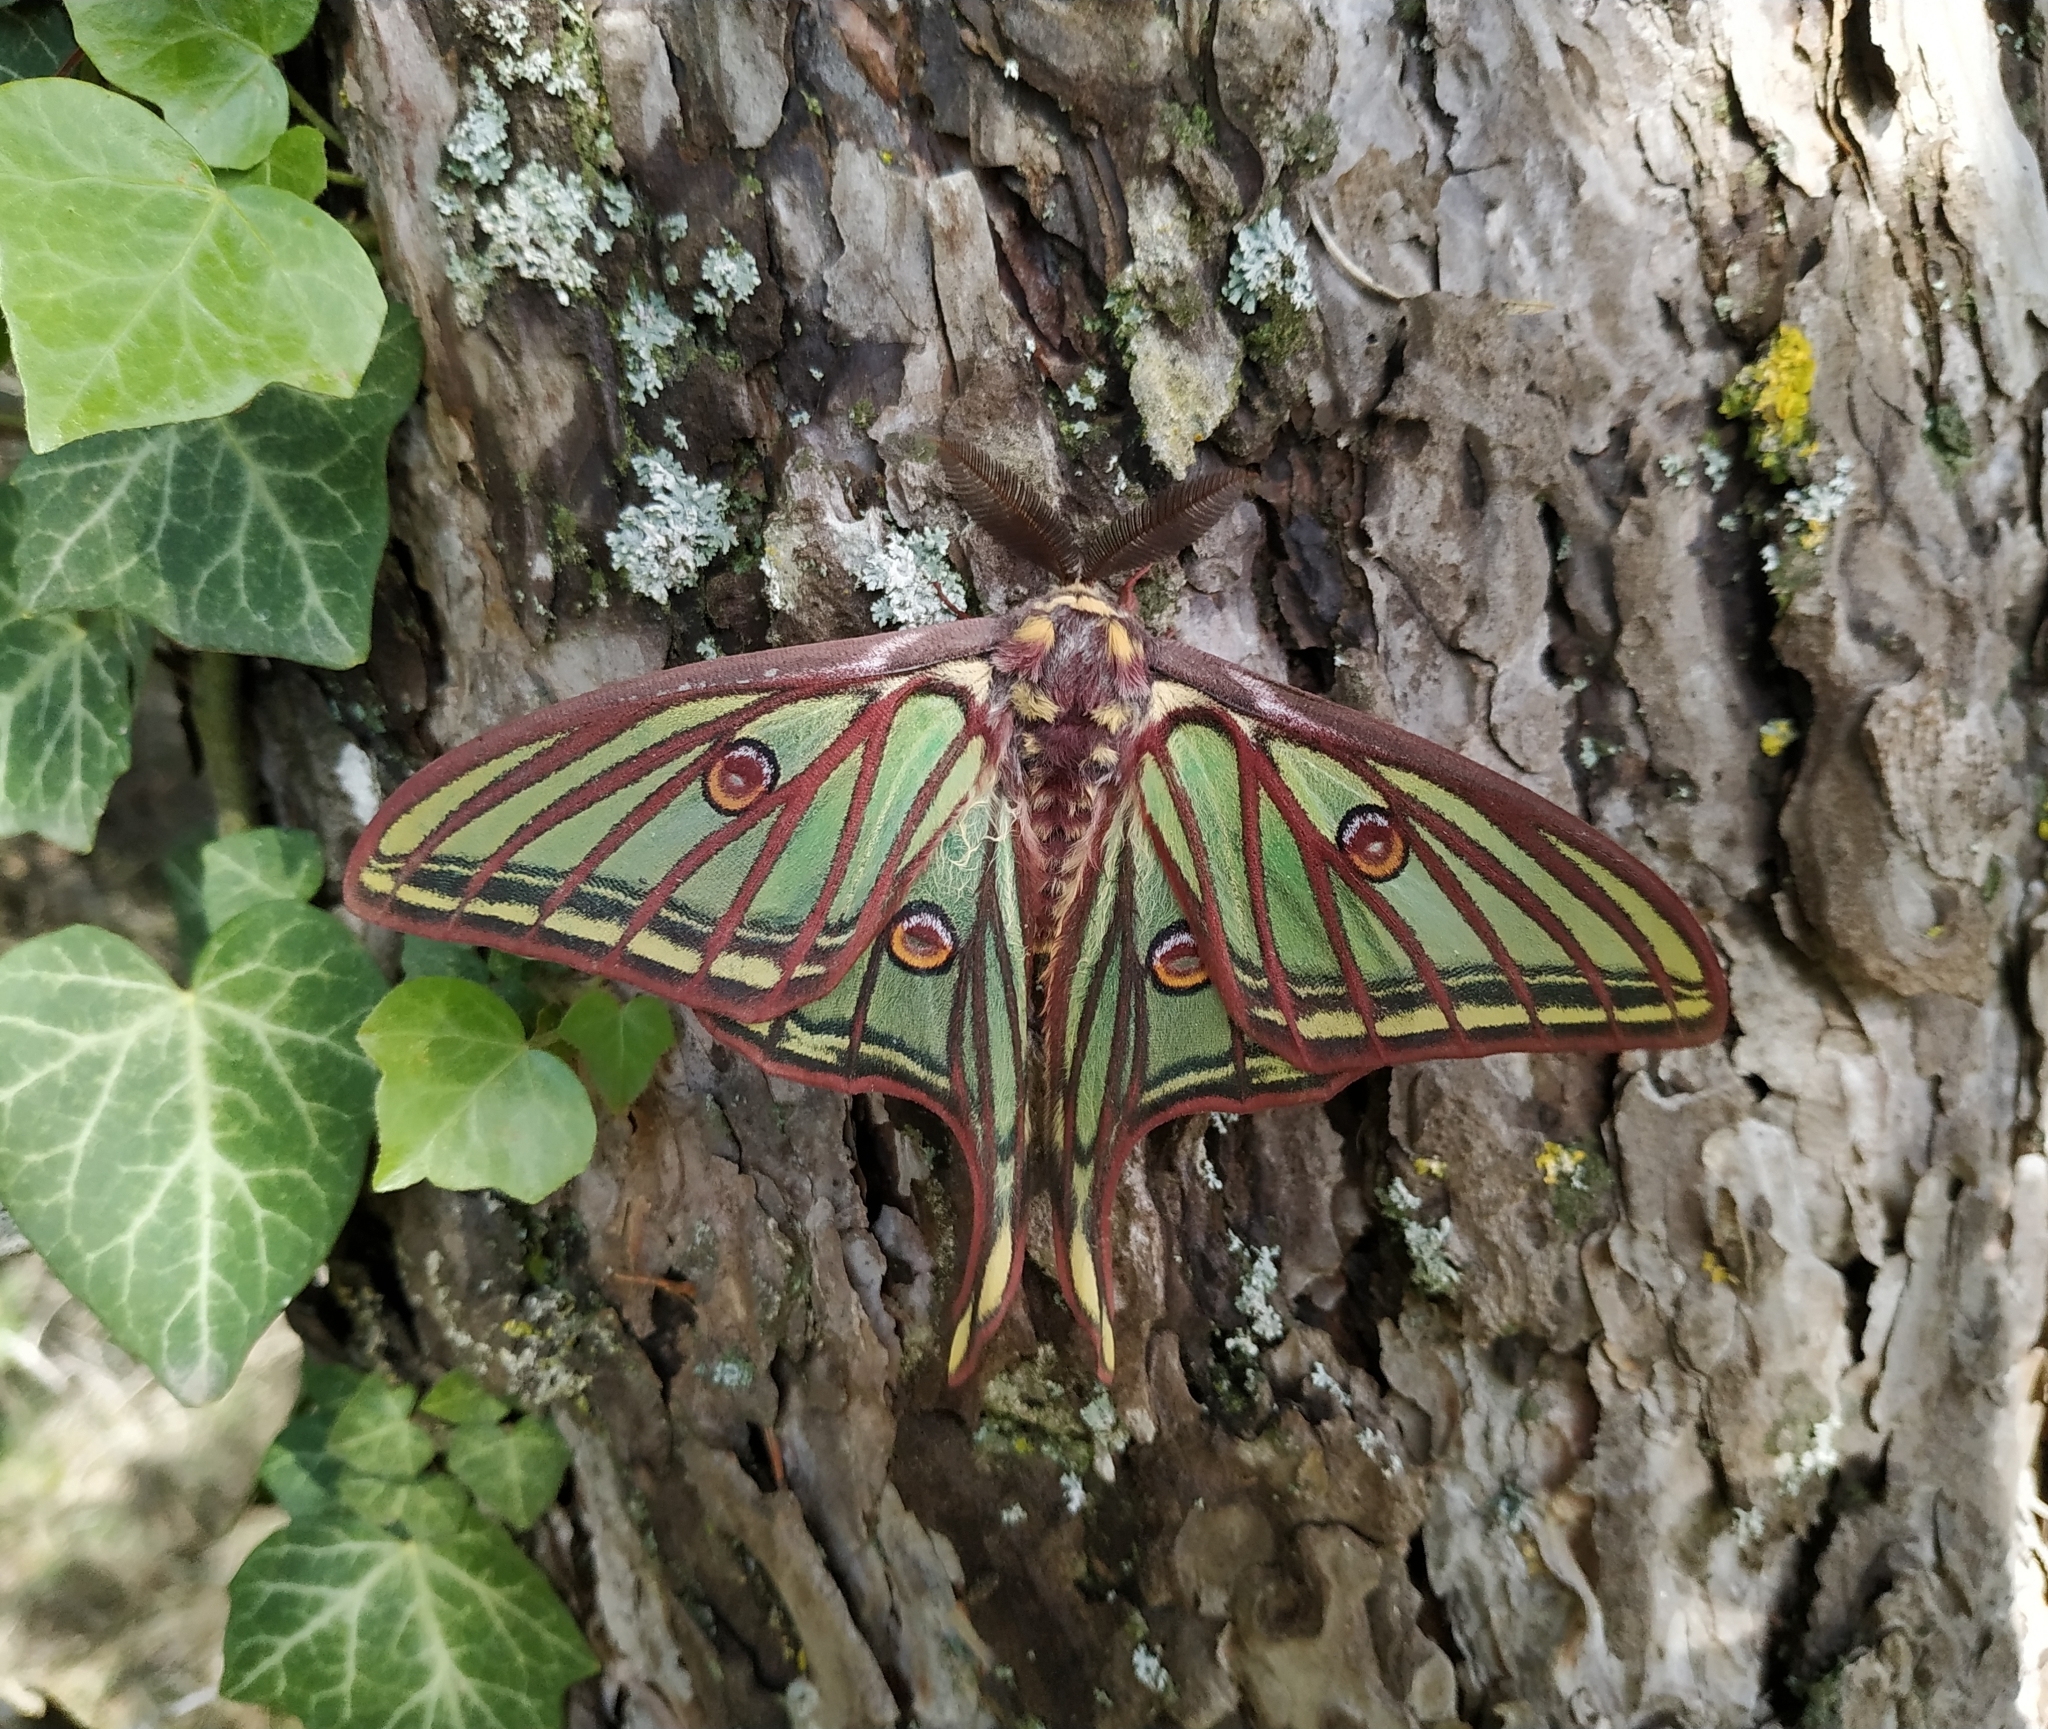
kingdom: Animalia
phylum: Arthropoda
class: Insecta
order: Lepidoptera
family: Saturniidae
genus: Graellsia
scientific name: Graellsia isabellae
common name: Spanish moon moth
